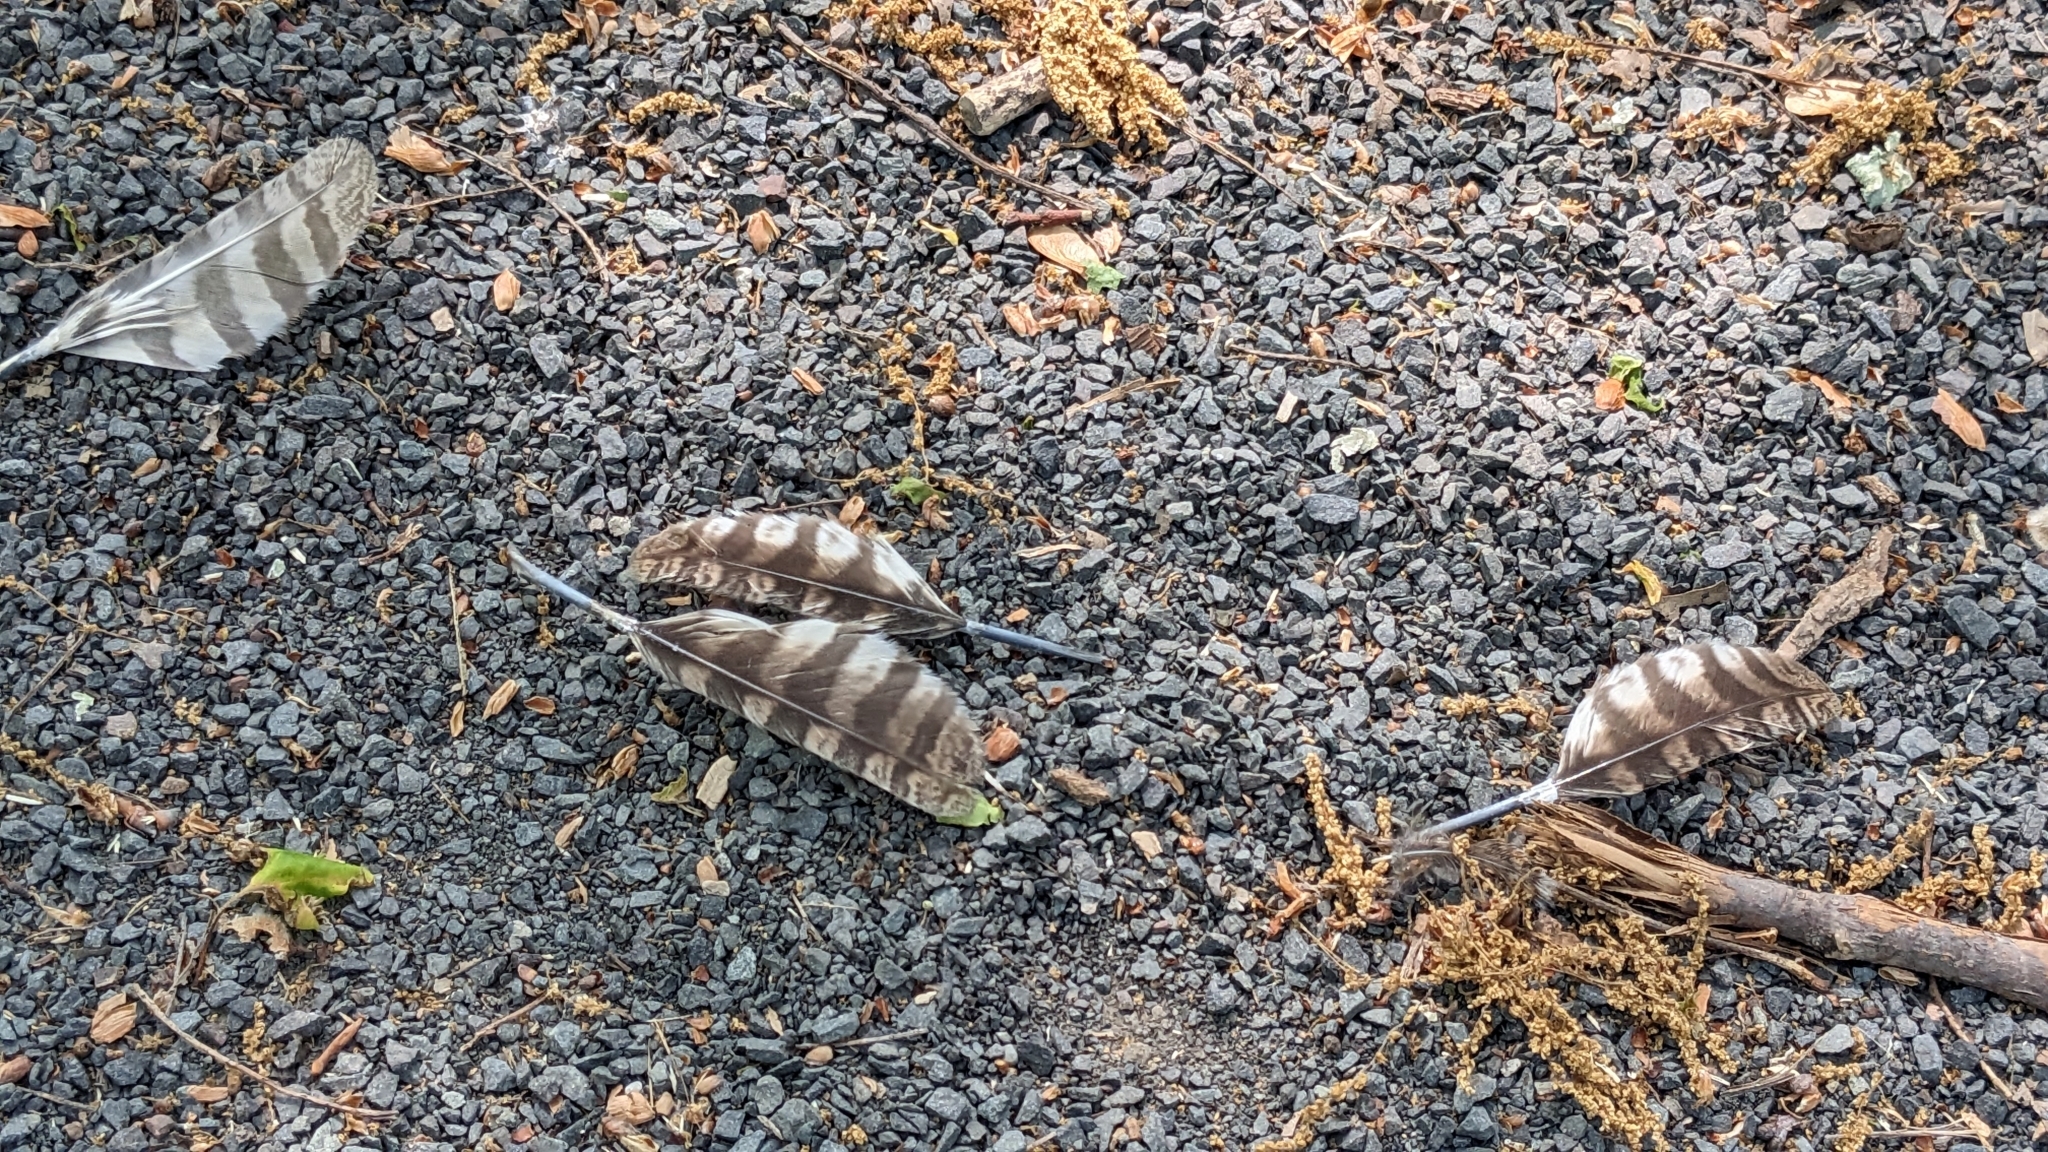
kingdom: Animalia
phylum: Chordata
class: Aves
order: Strigiformes
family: Strigidae
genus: Megascops
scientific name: Megascops asio
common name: Eastern screech-owl
